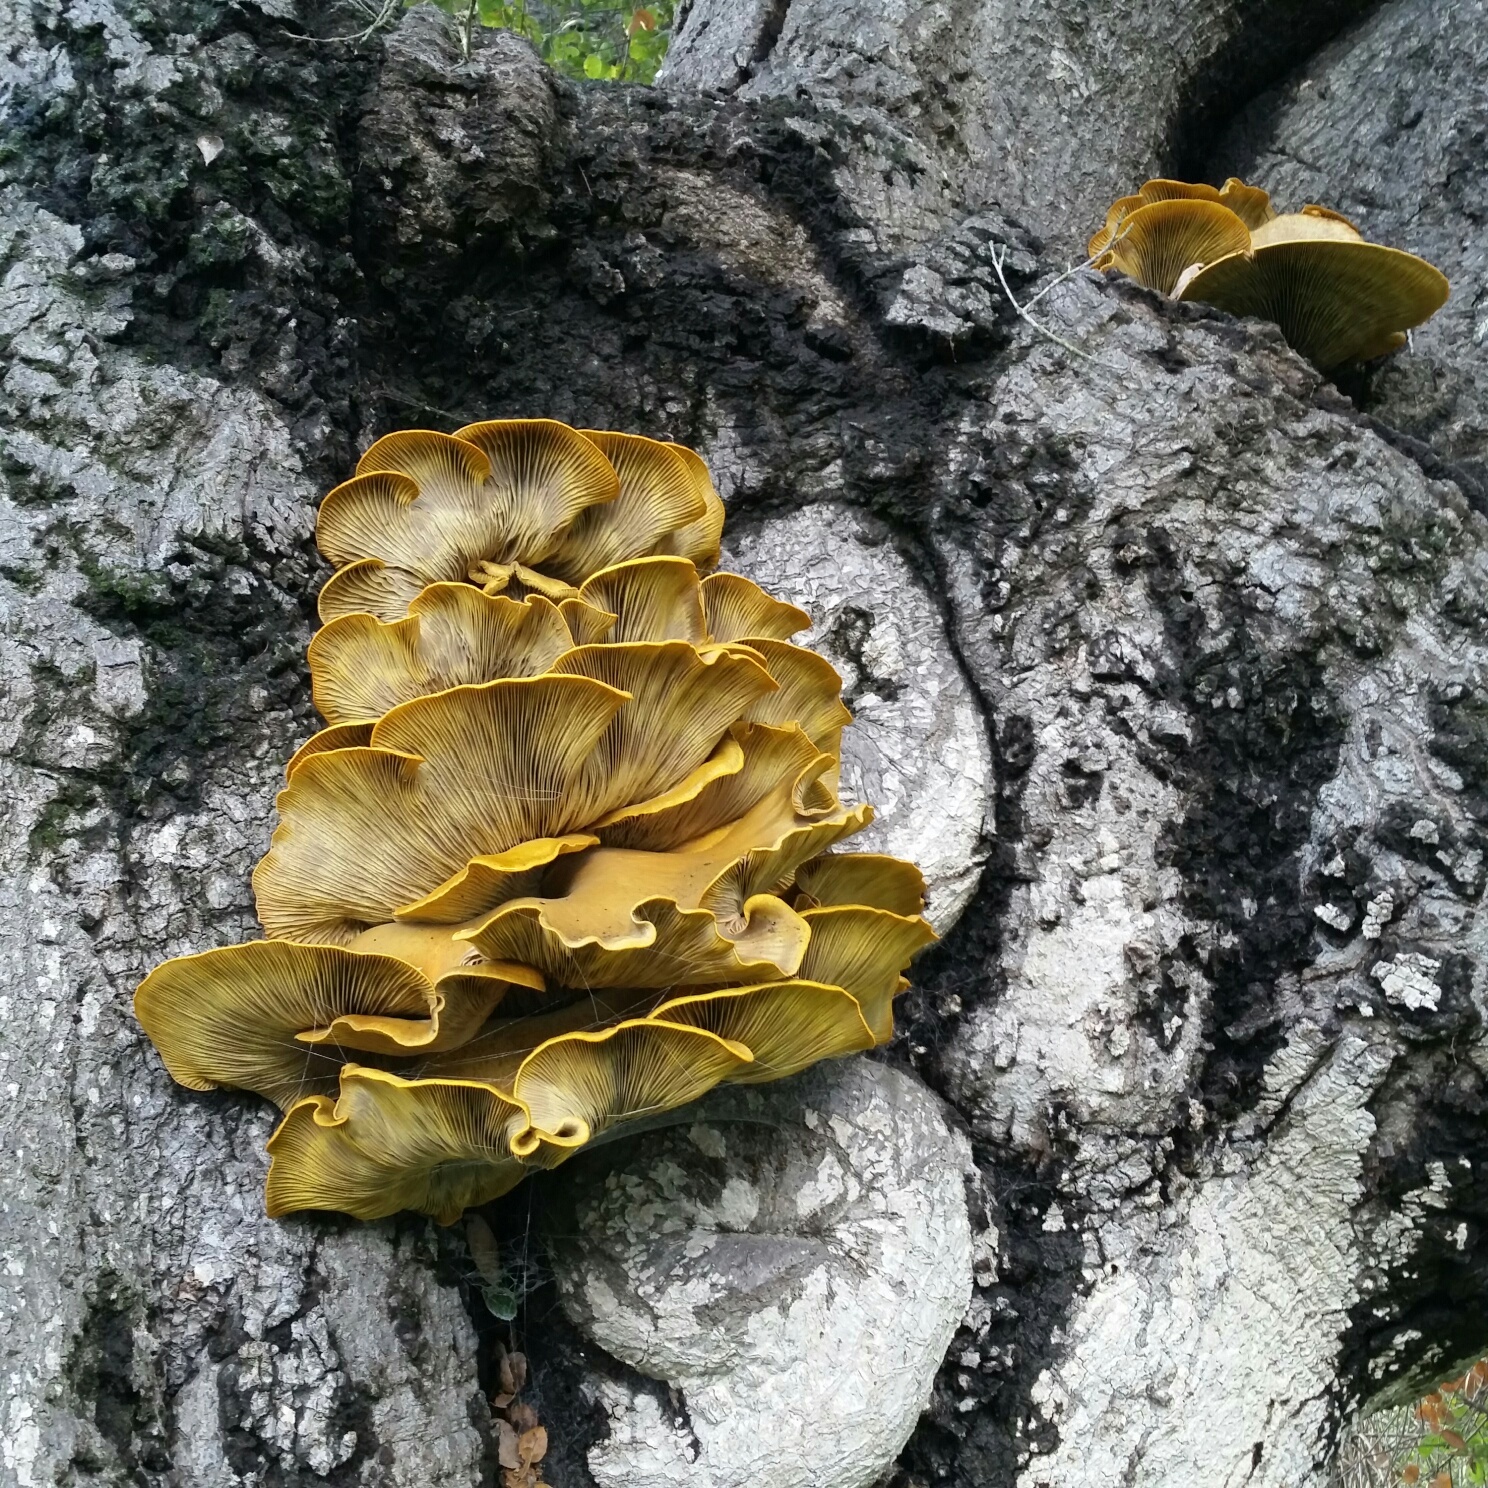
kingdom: Fungi
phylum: Basidiomycota
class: Agaricomycetes
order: Agaricales
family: Omphalotaceae
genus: Omphalotus
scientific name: Omphalotus olivascens
